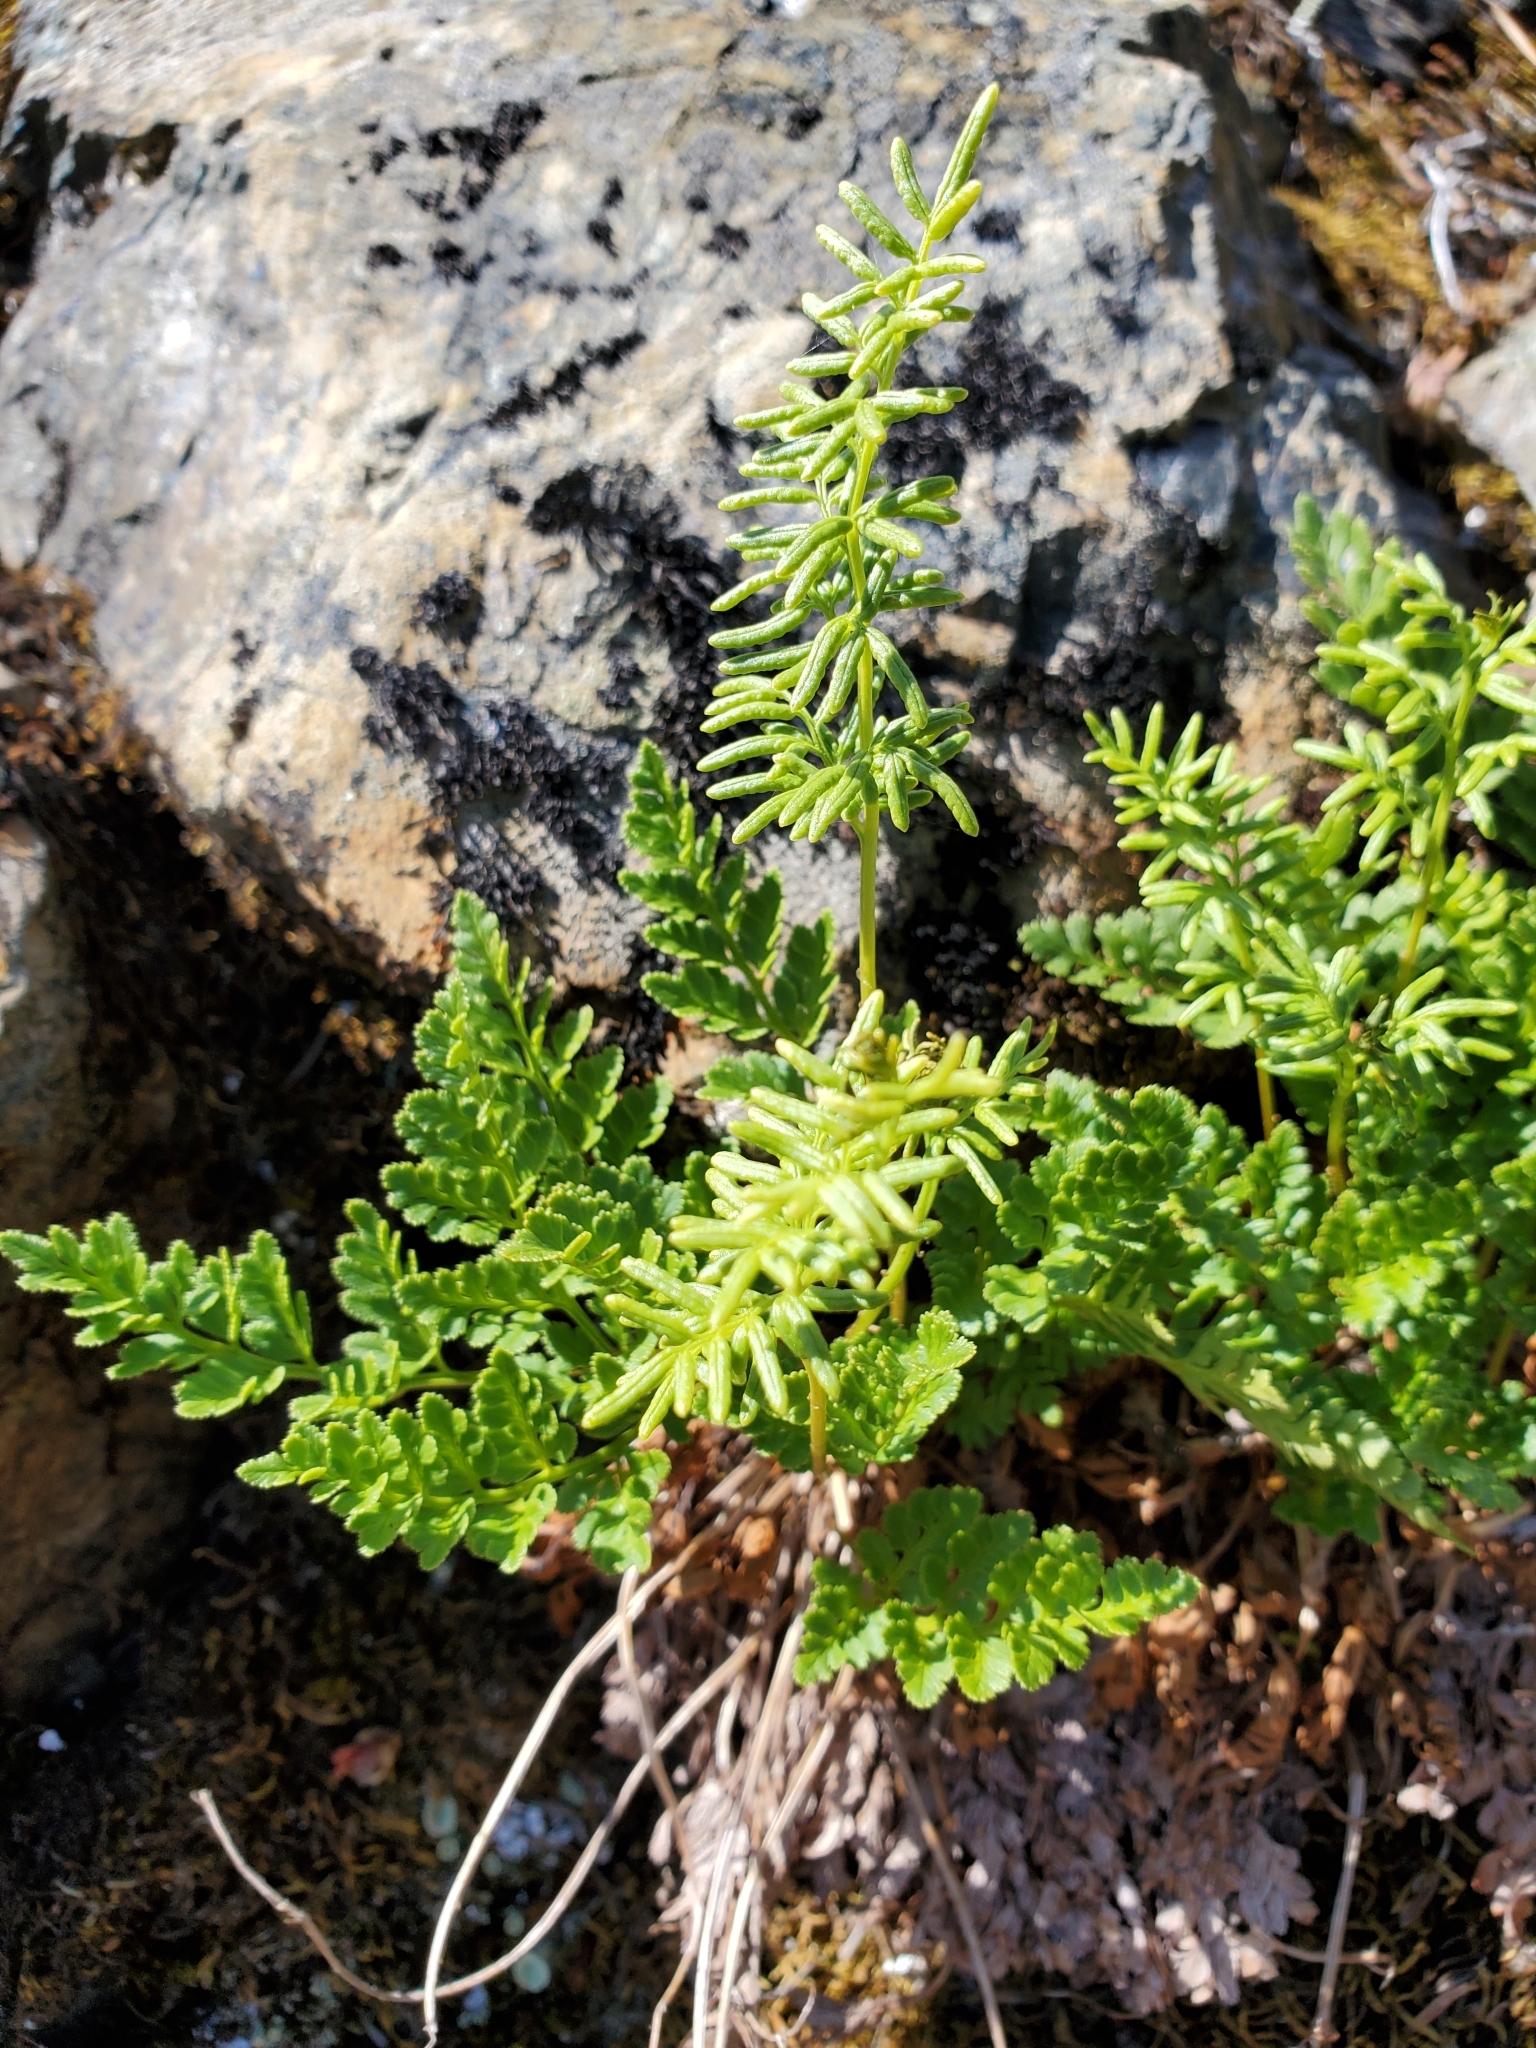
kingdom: Plantae
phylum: Tracheophyta
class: Polypodiopsida
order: Polypodiales
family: Pteridaceae
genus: Cryptogramma
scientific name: Cryptogramma acrostichoides
